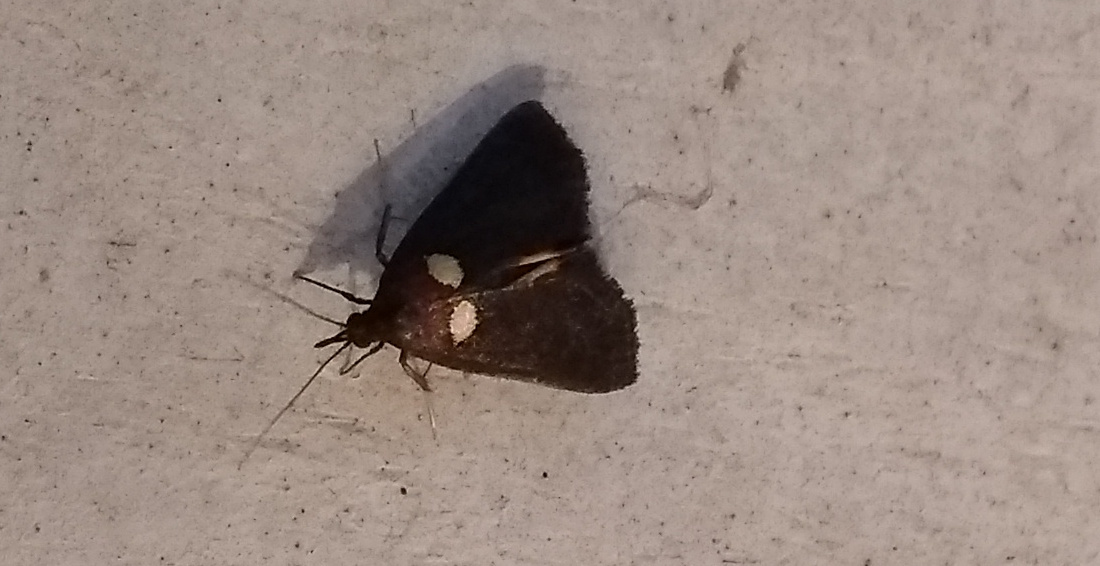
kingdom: Animalia
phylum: Arthropoda
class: Insecta
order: Lepidoptera
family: Pyralidae
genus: Semnia
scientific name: Semnia auritalis
